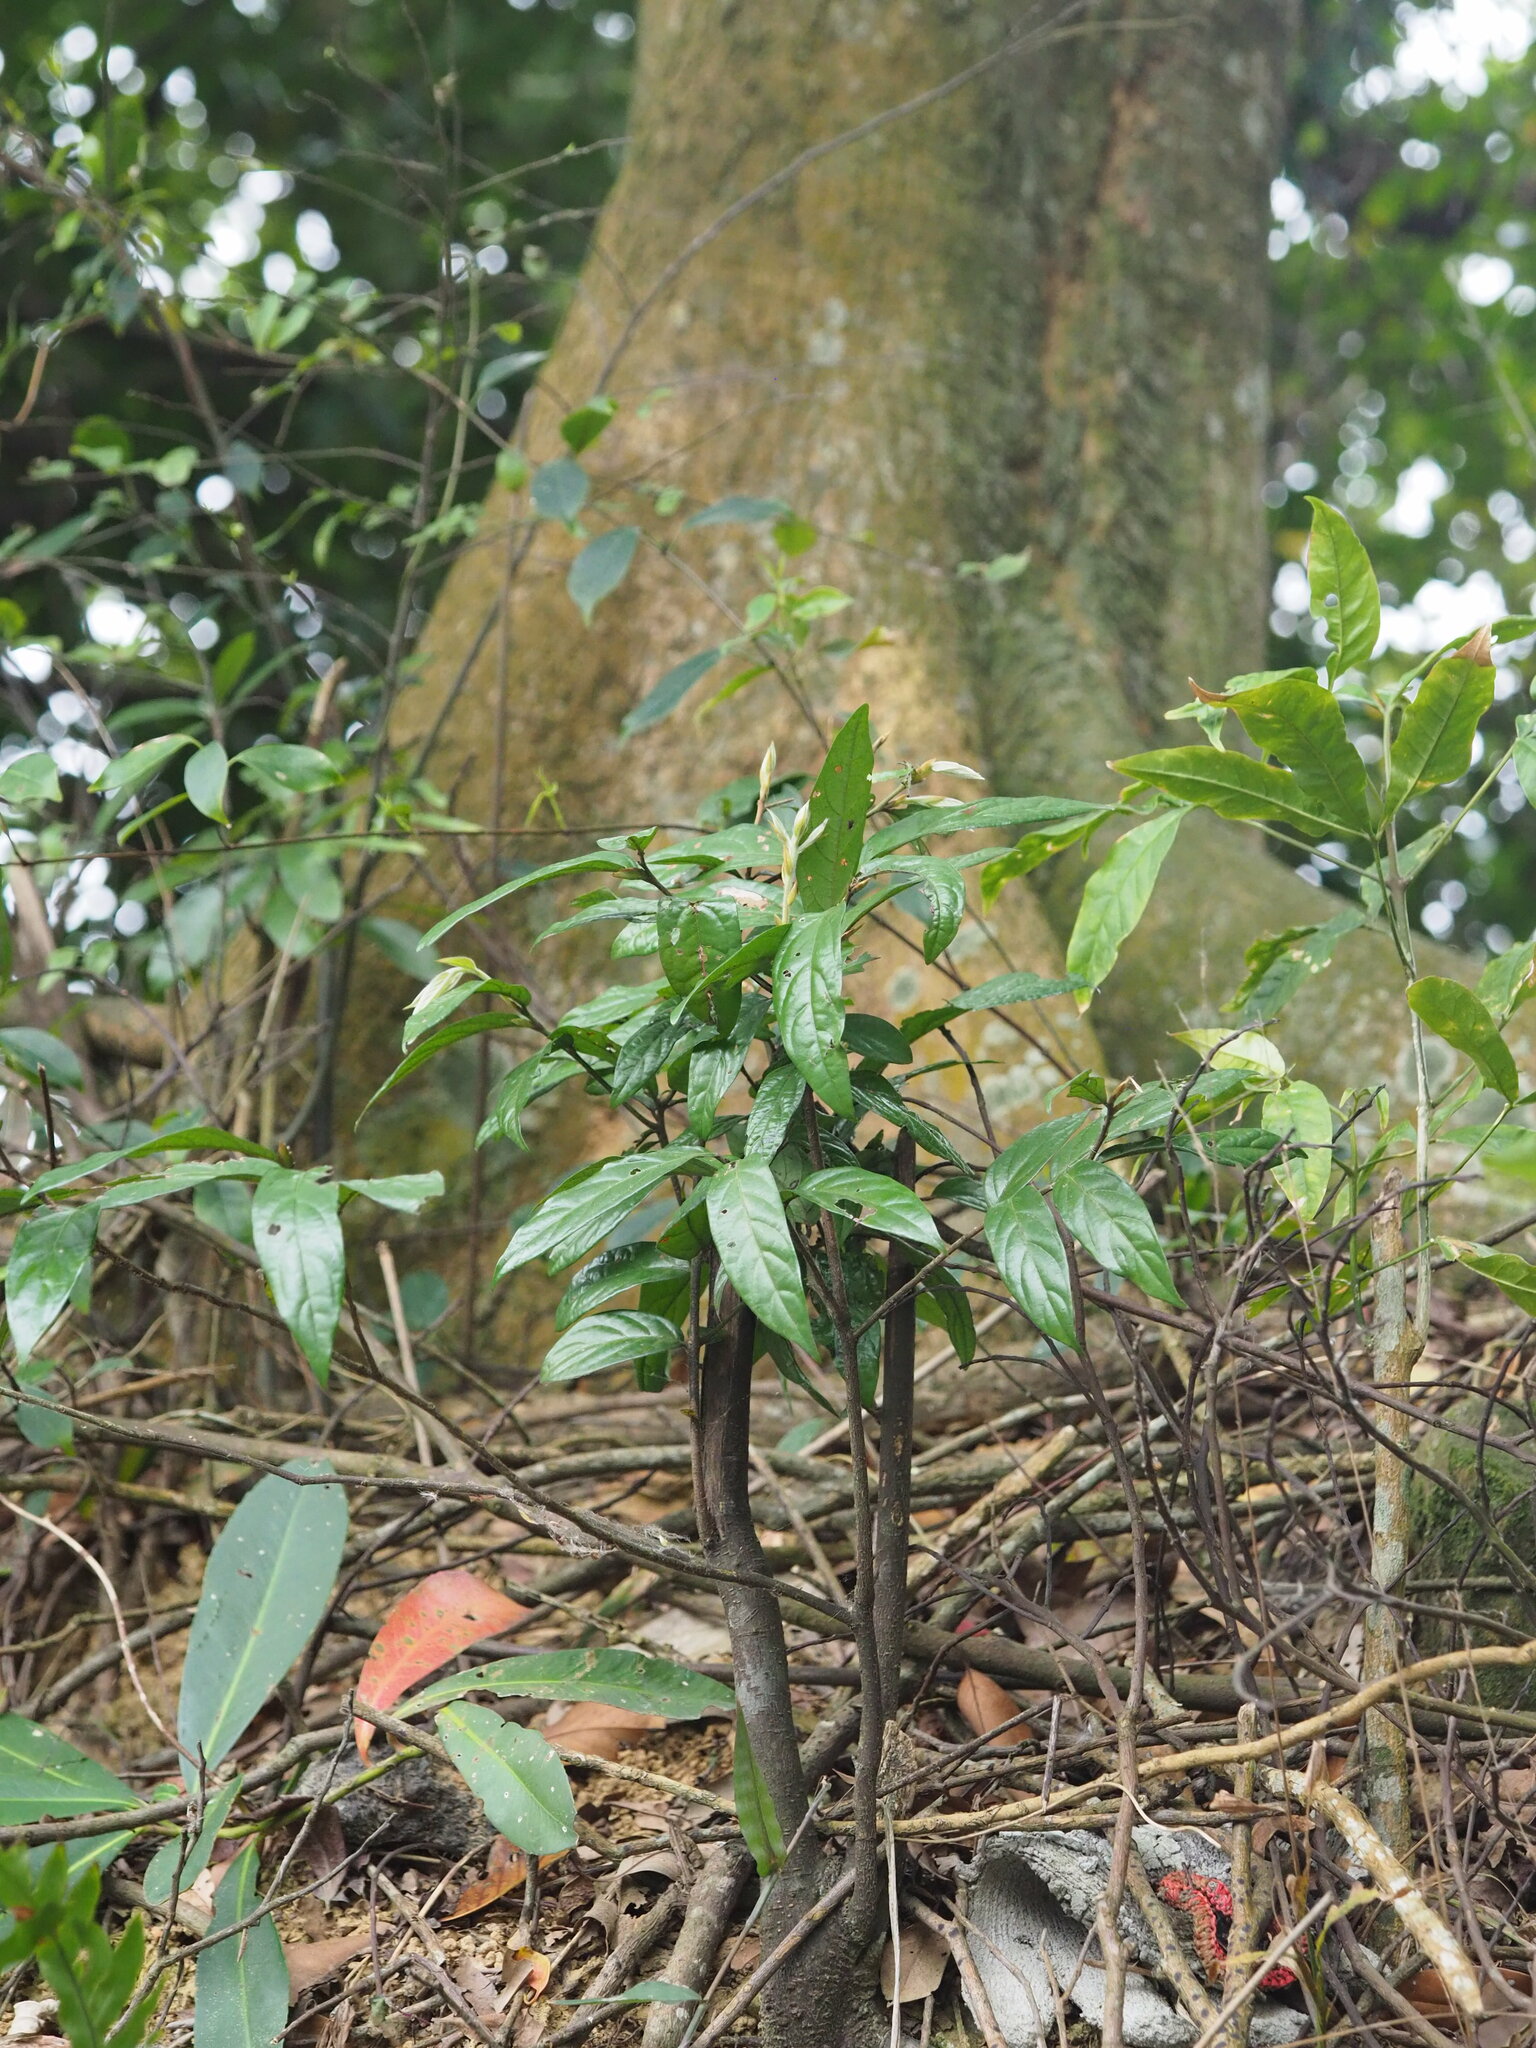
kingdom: Plantae
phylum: Tracheophyta
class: Magnoliopsida
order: Ericales
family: Ebenaceae
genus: Diospyros
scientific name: Diospyros eriantha
